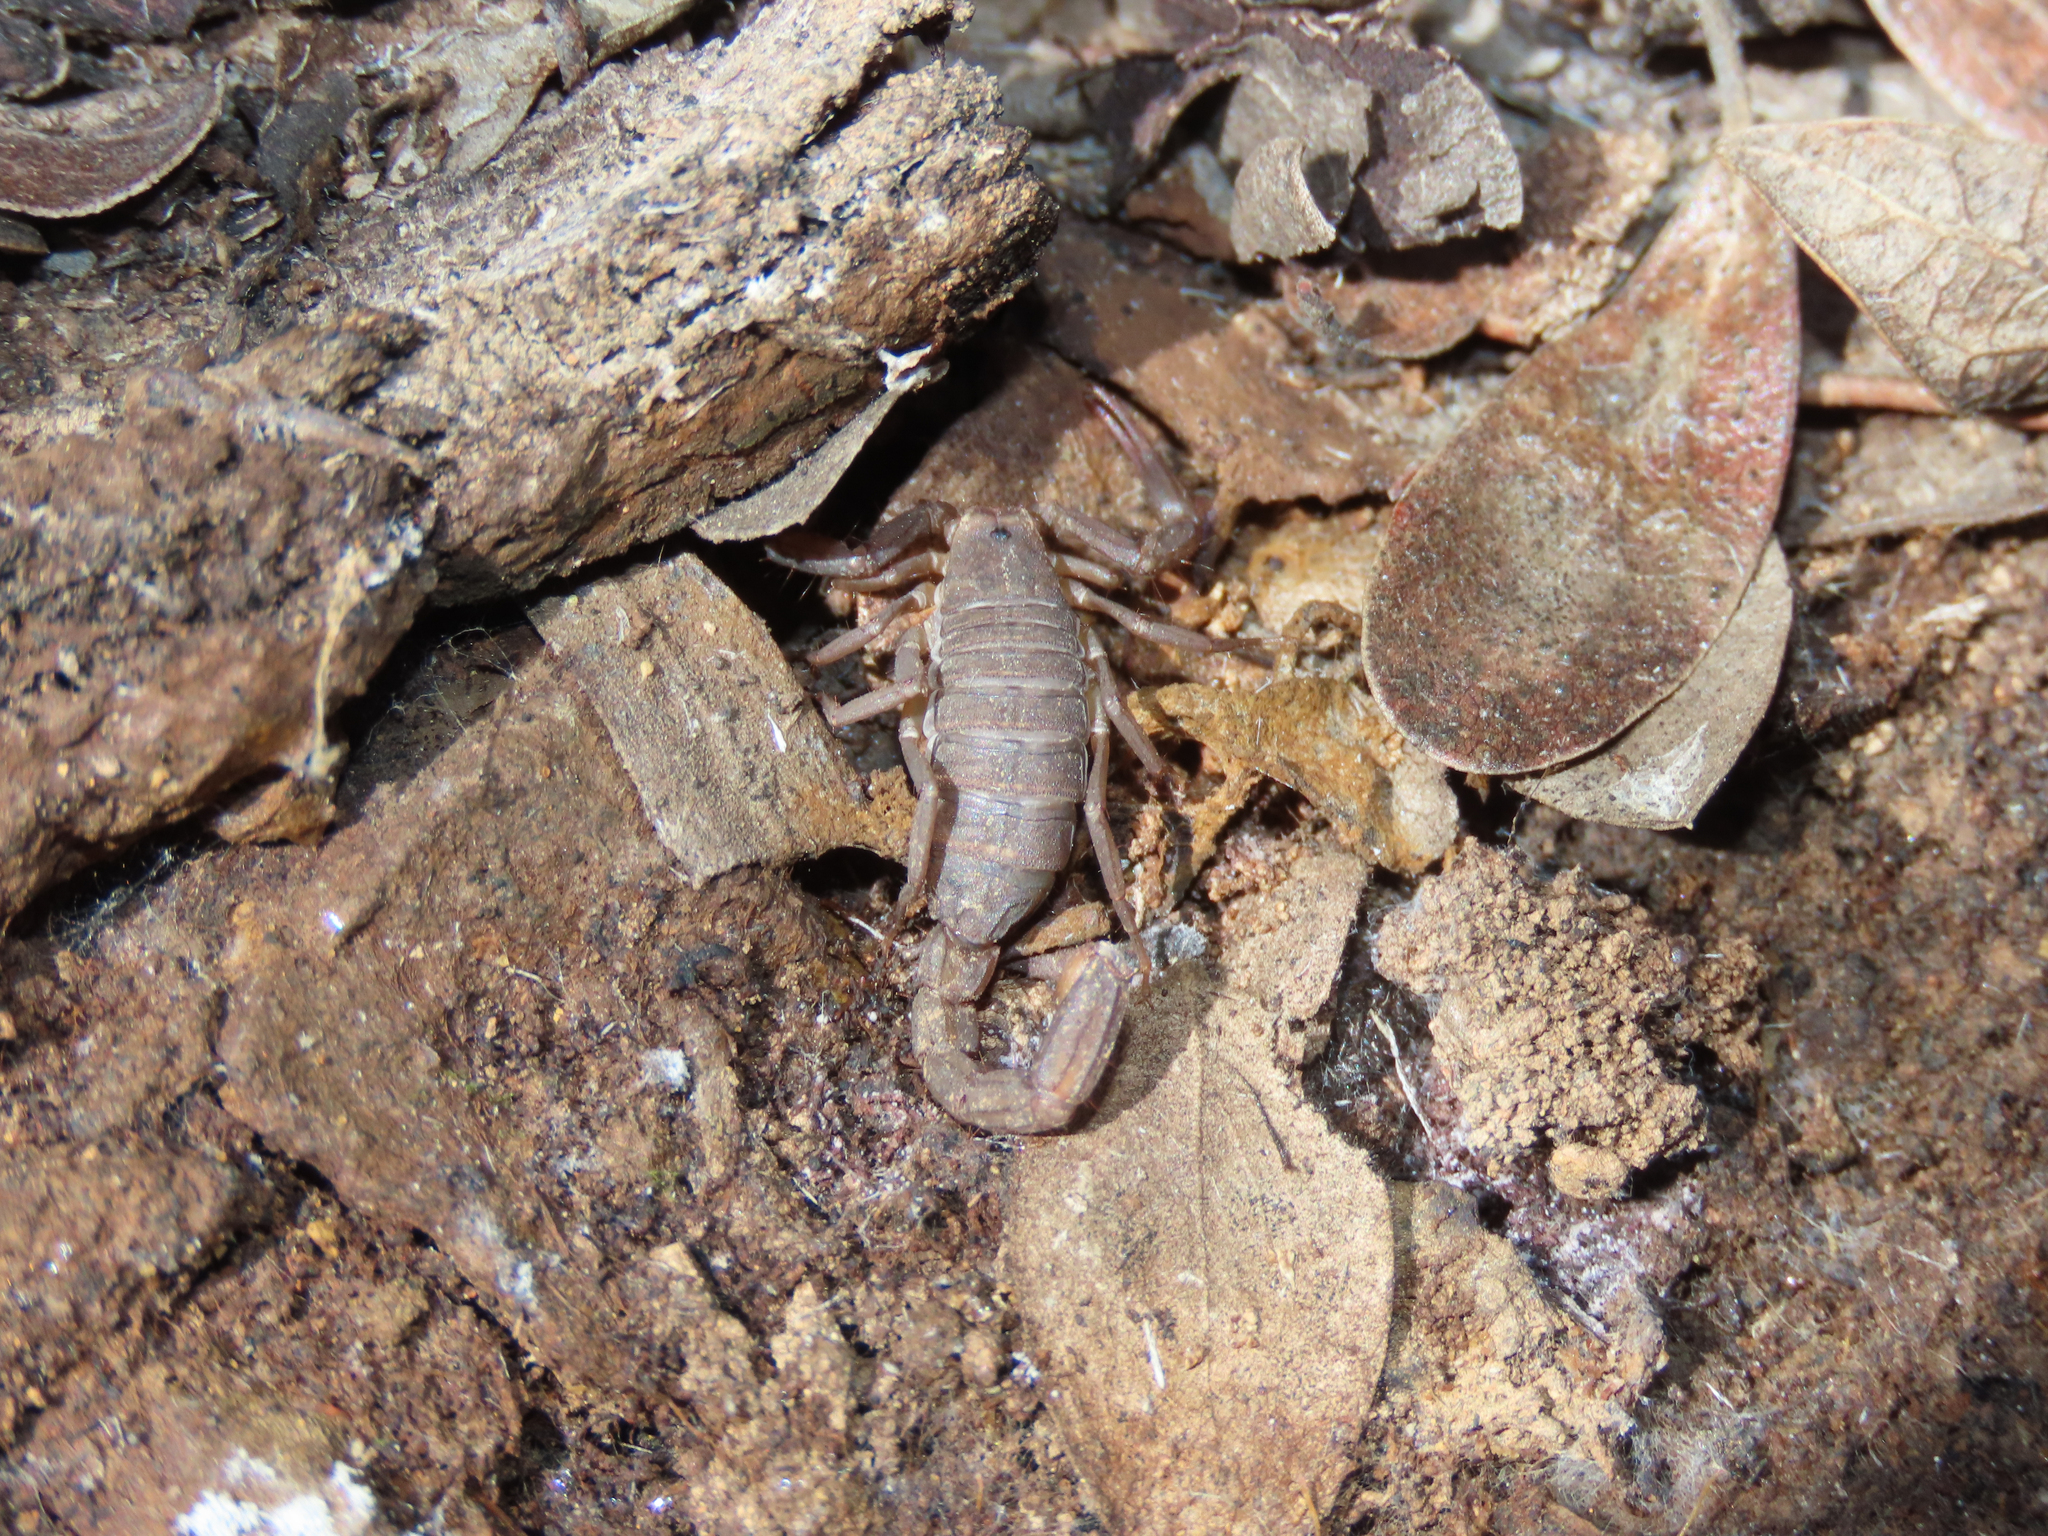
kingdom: Animalia
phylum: Arthropoda
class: Arachnida
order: Scorpiones
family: Vaejovidae
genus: Vaejovis
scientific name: Vaejovis vorhiesi
